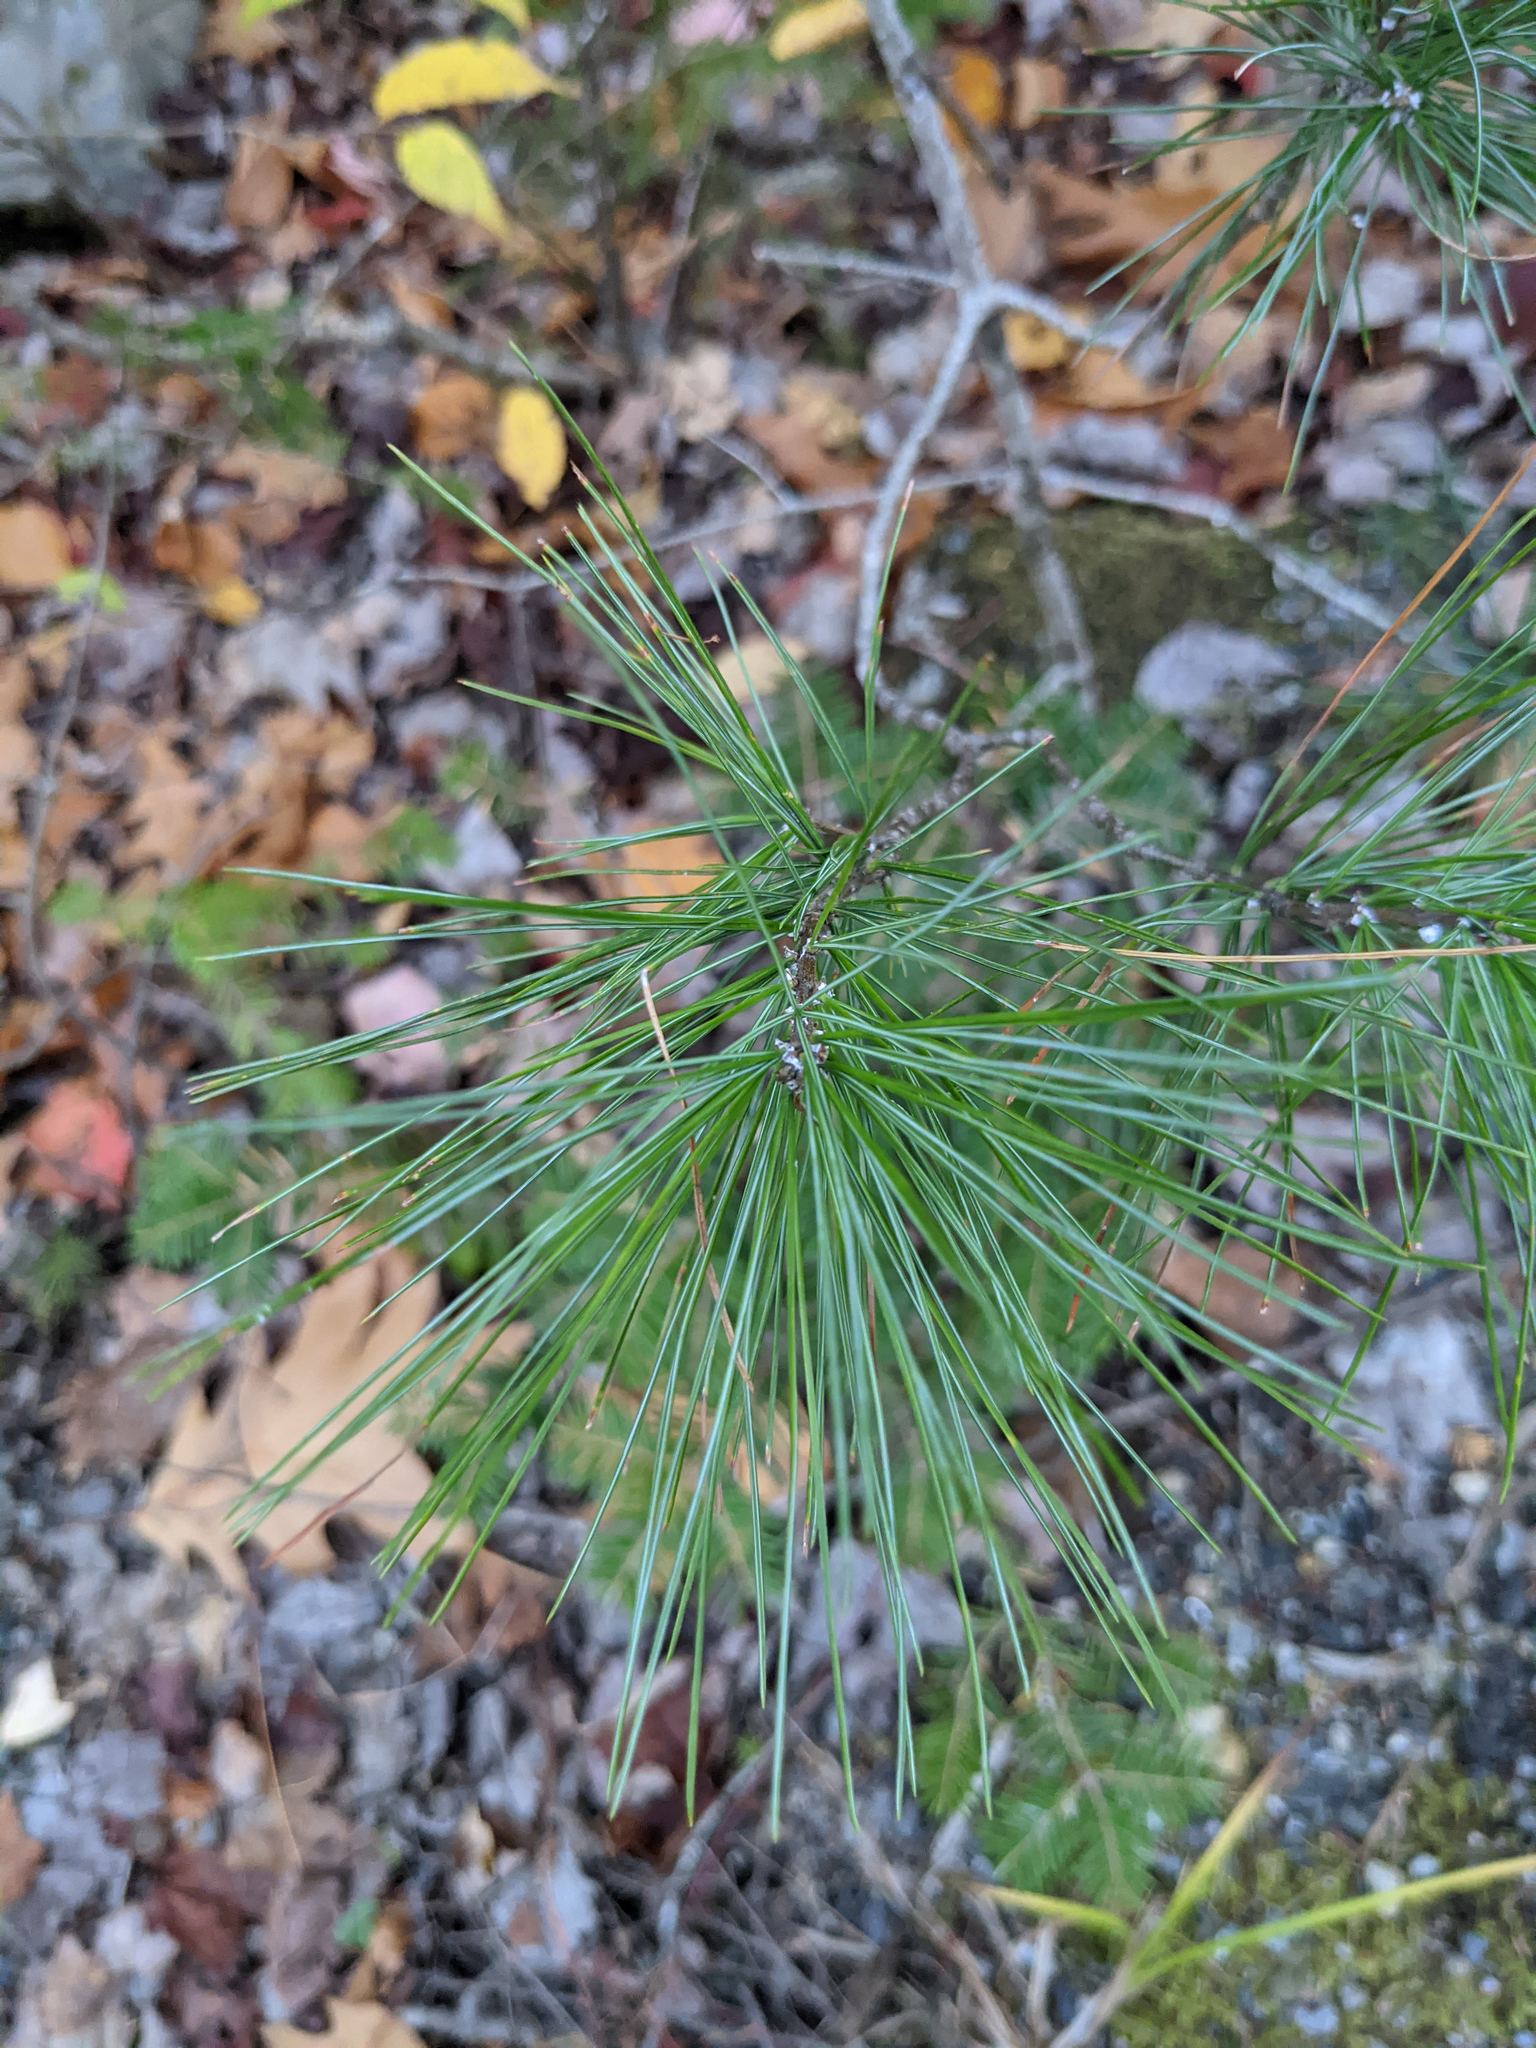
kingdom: Plantae
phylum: Tracheophyta
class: Pinopsida
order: Pinales
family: Pinaceae
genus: Pinus
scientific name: Pinus strobus
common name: Weymouth pine
